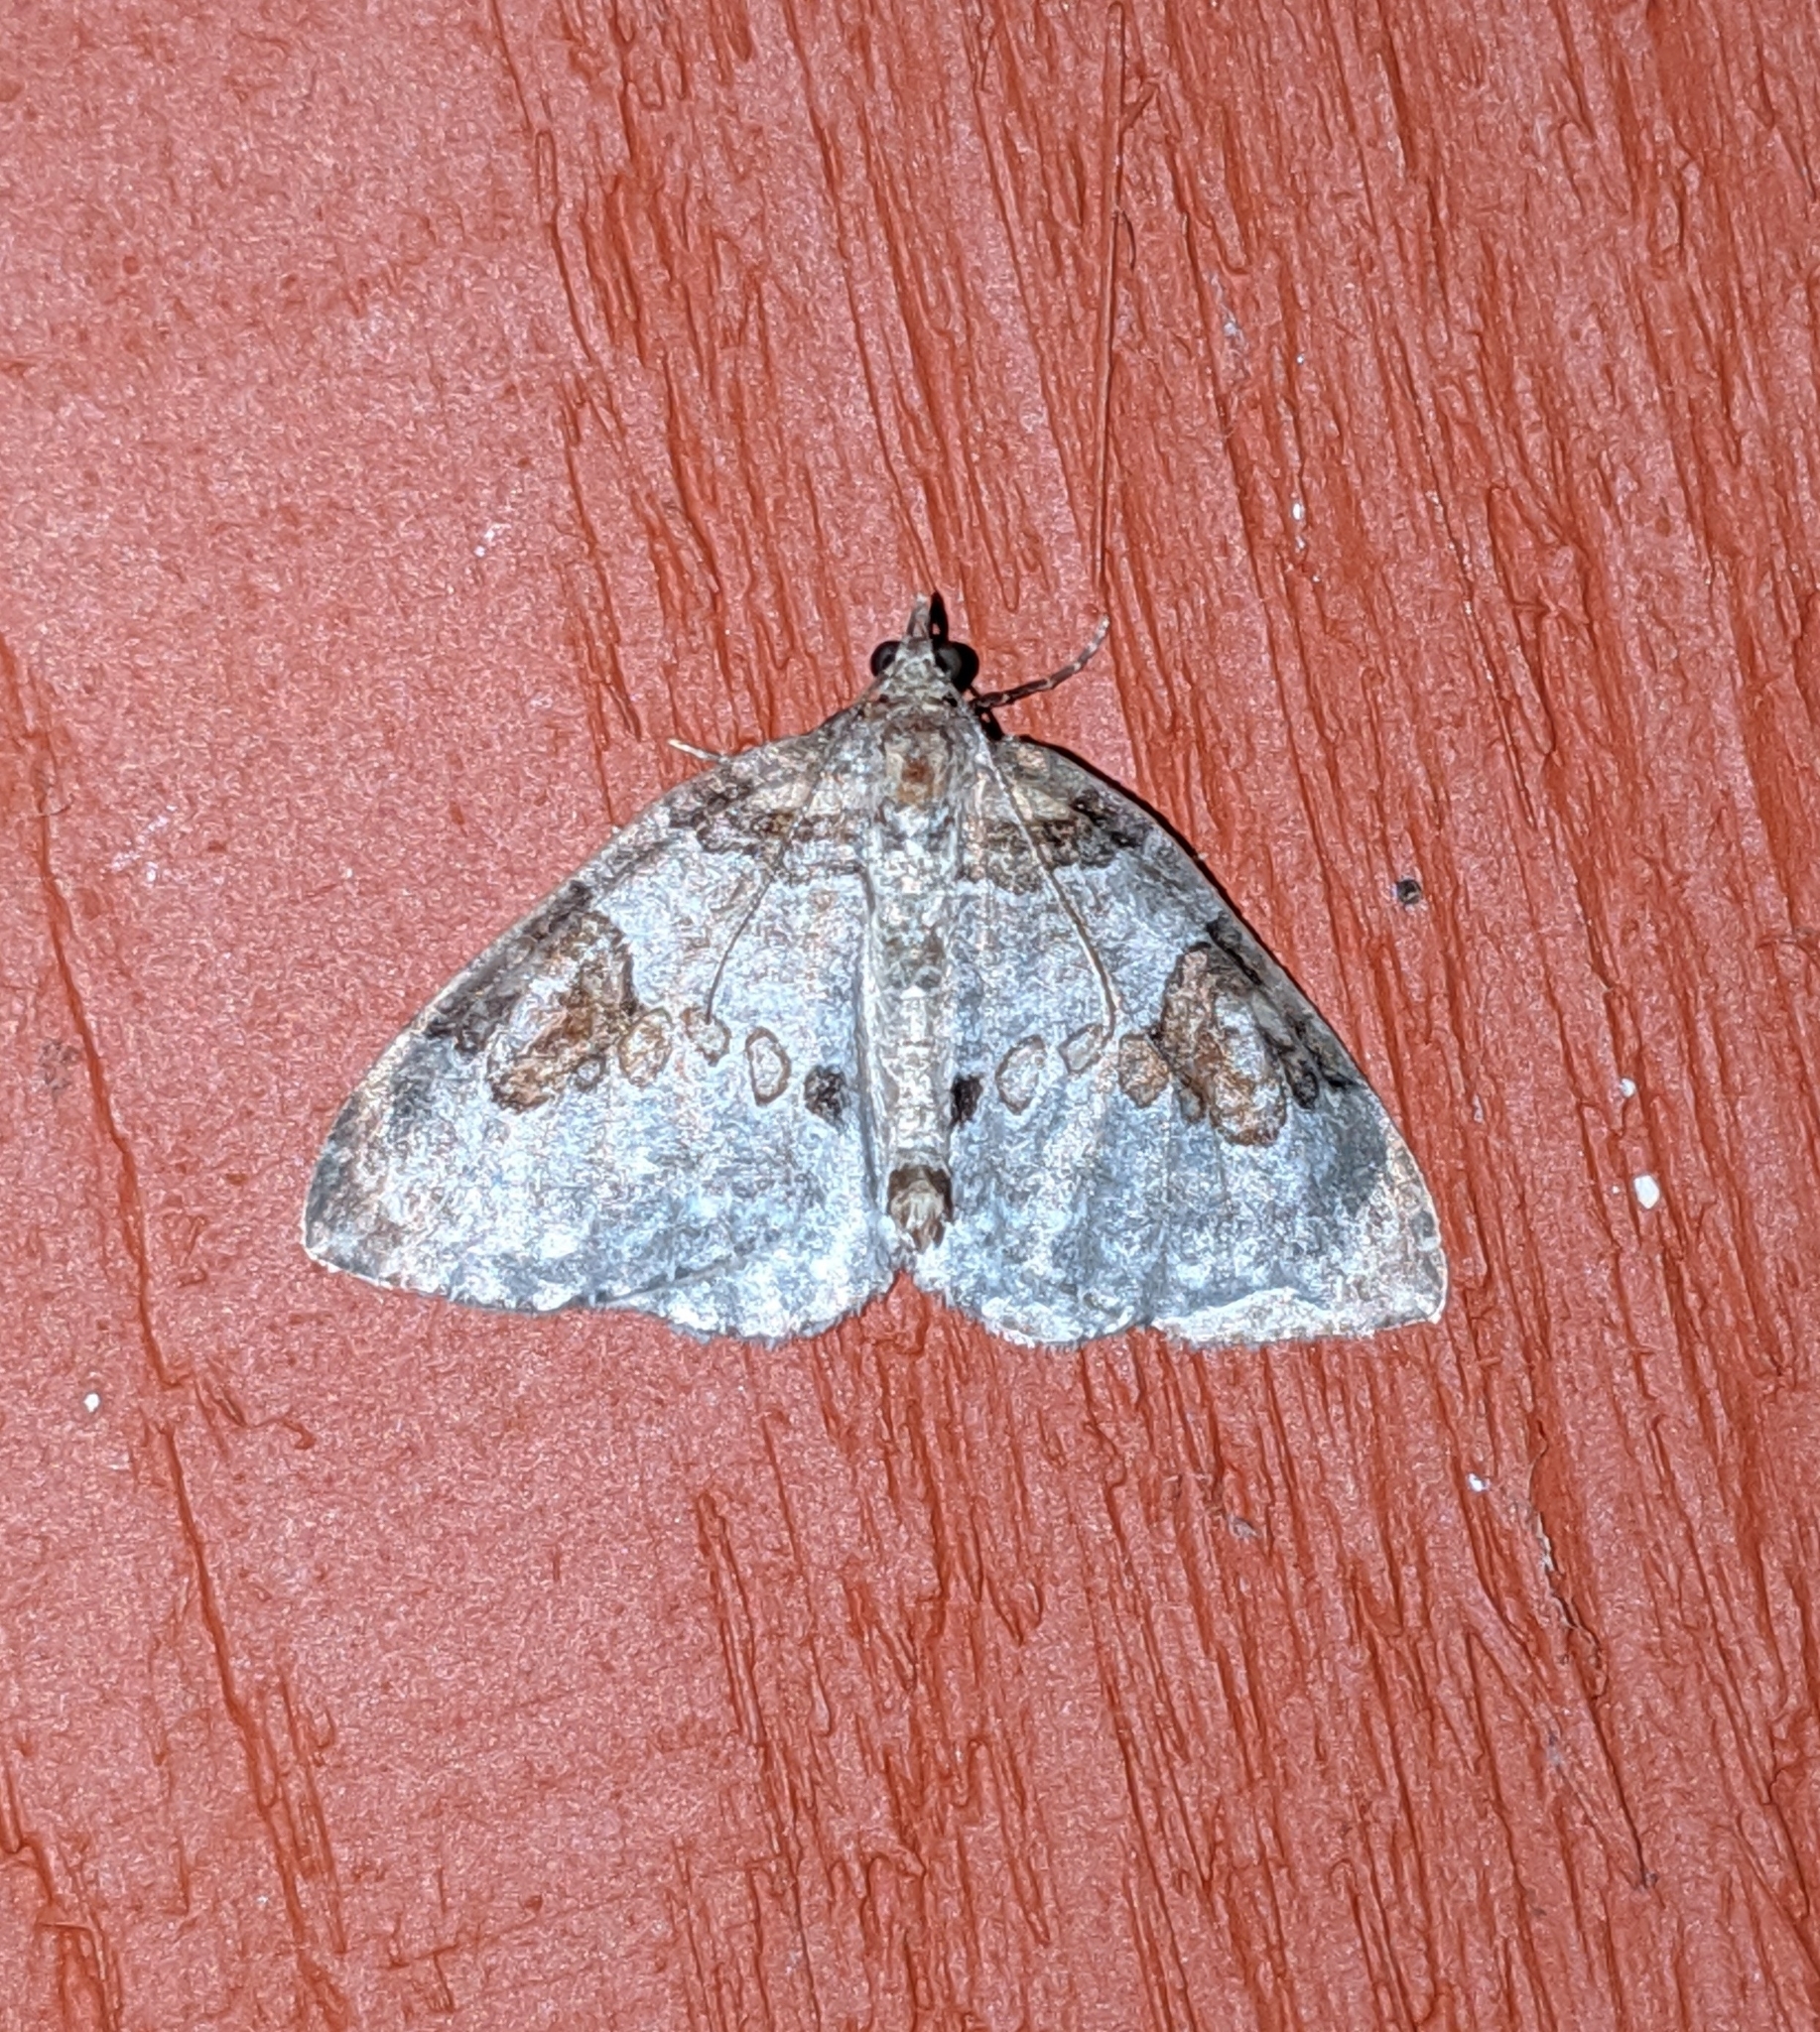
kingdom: Animalia
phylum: Arthropoda
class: Insecta
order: Lepidoptera
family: Geometridae
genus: Plemyria
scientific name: Plemyria georgii
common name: George's carpet moth
